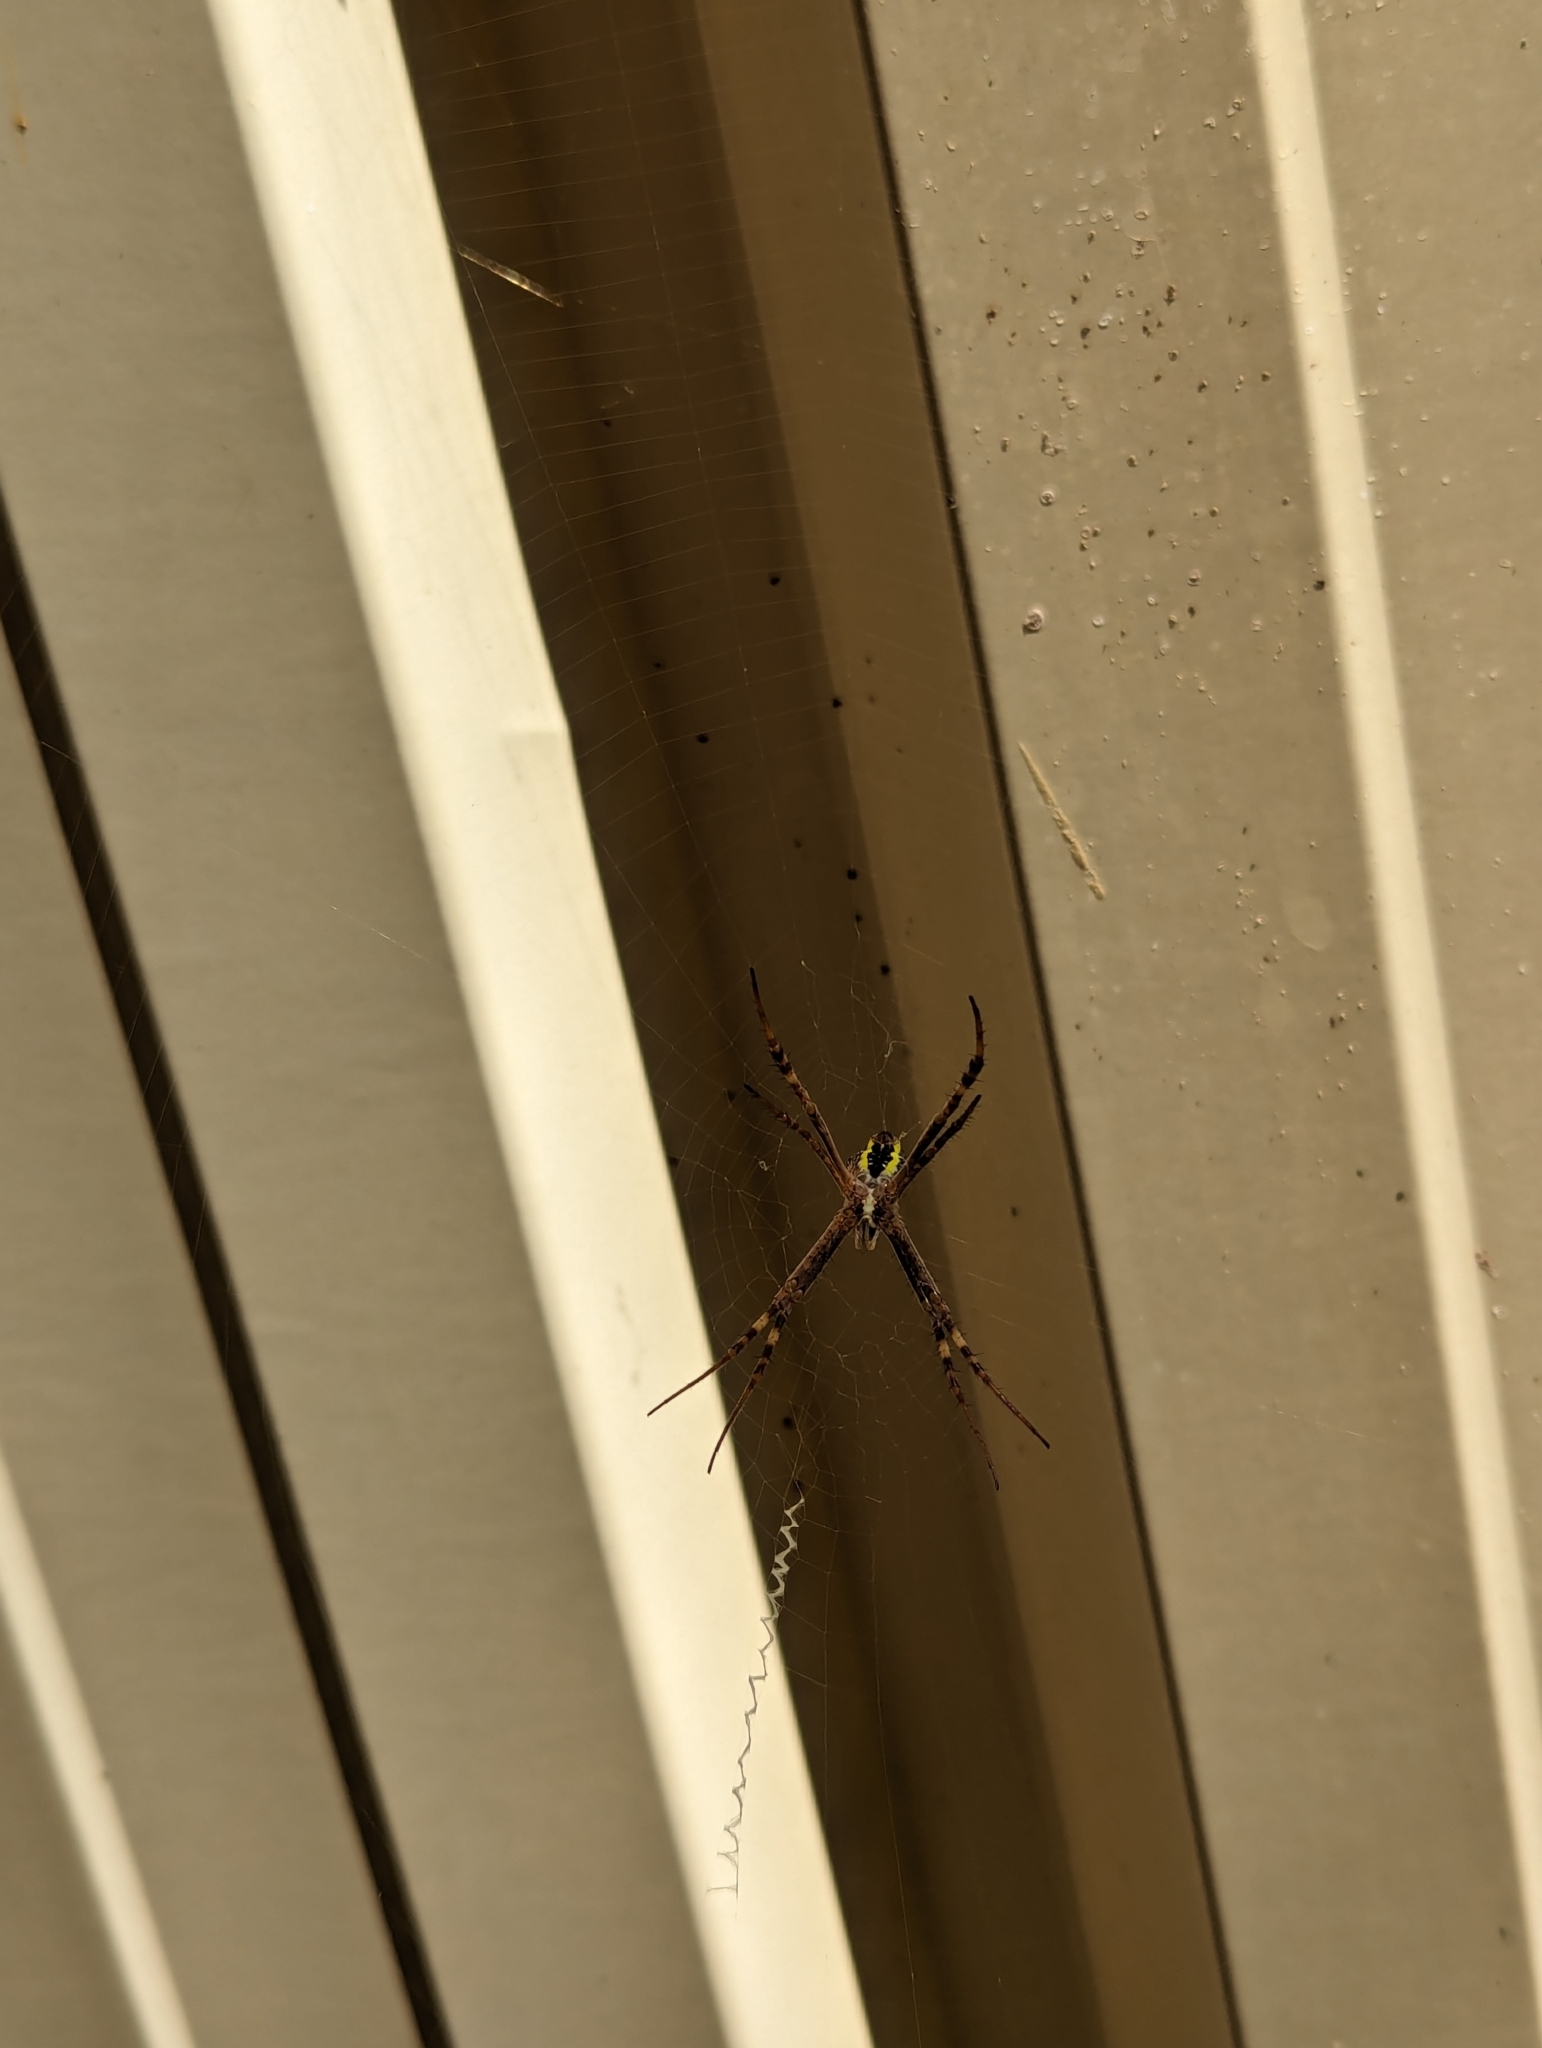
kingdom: Animalia
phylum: Arthropoda
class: Arachnida
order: Araneae
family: Araneidae
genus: Argiope
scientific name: Argiope keyserlingi
